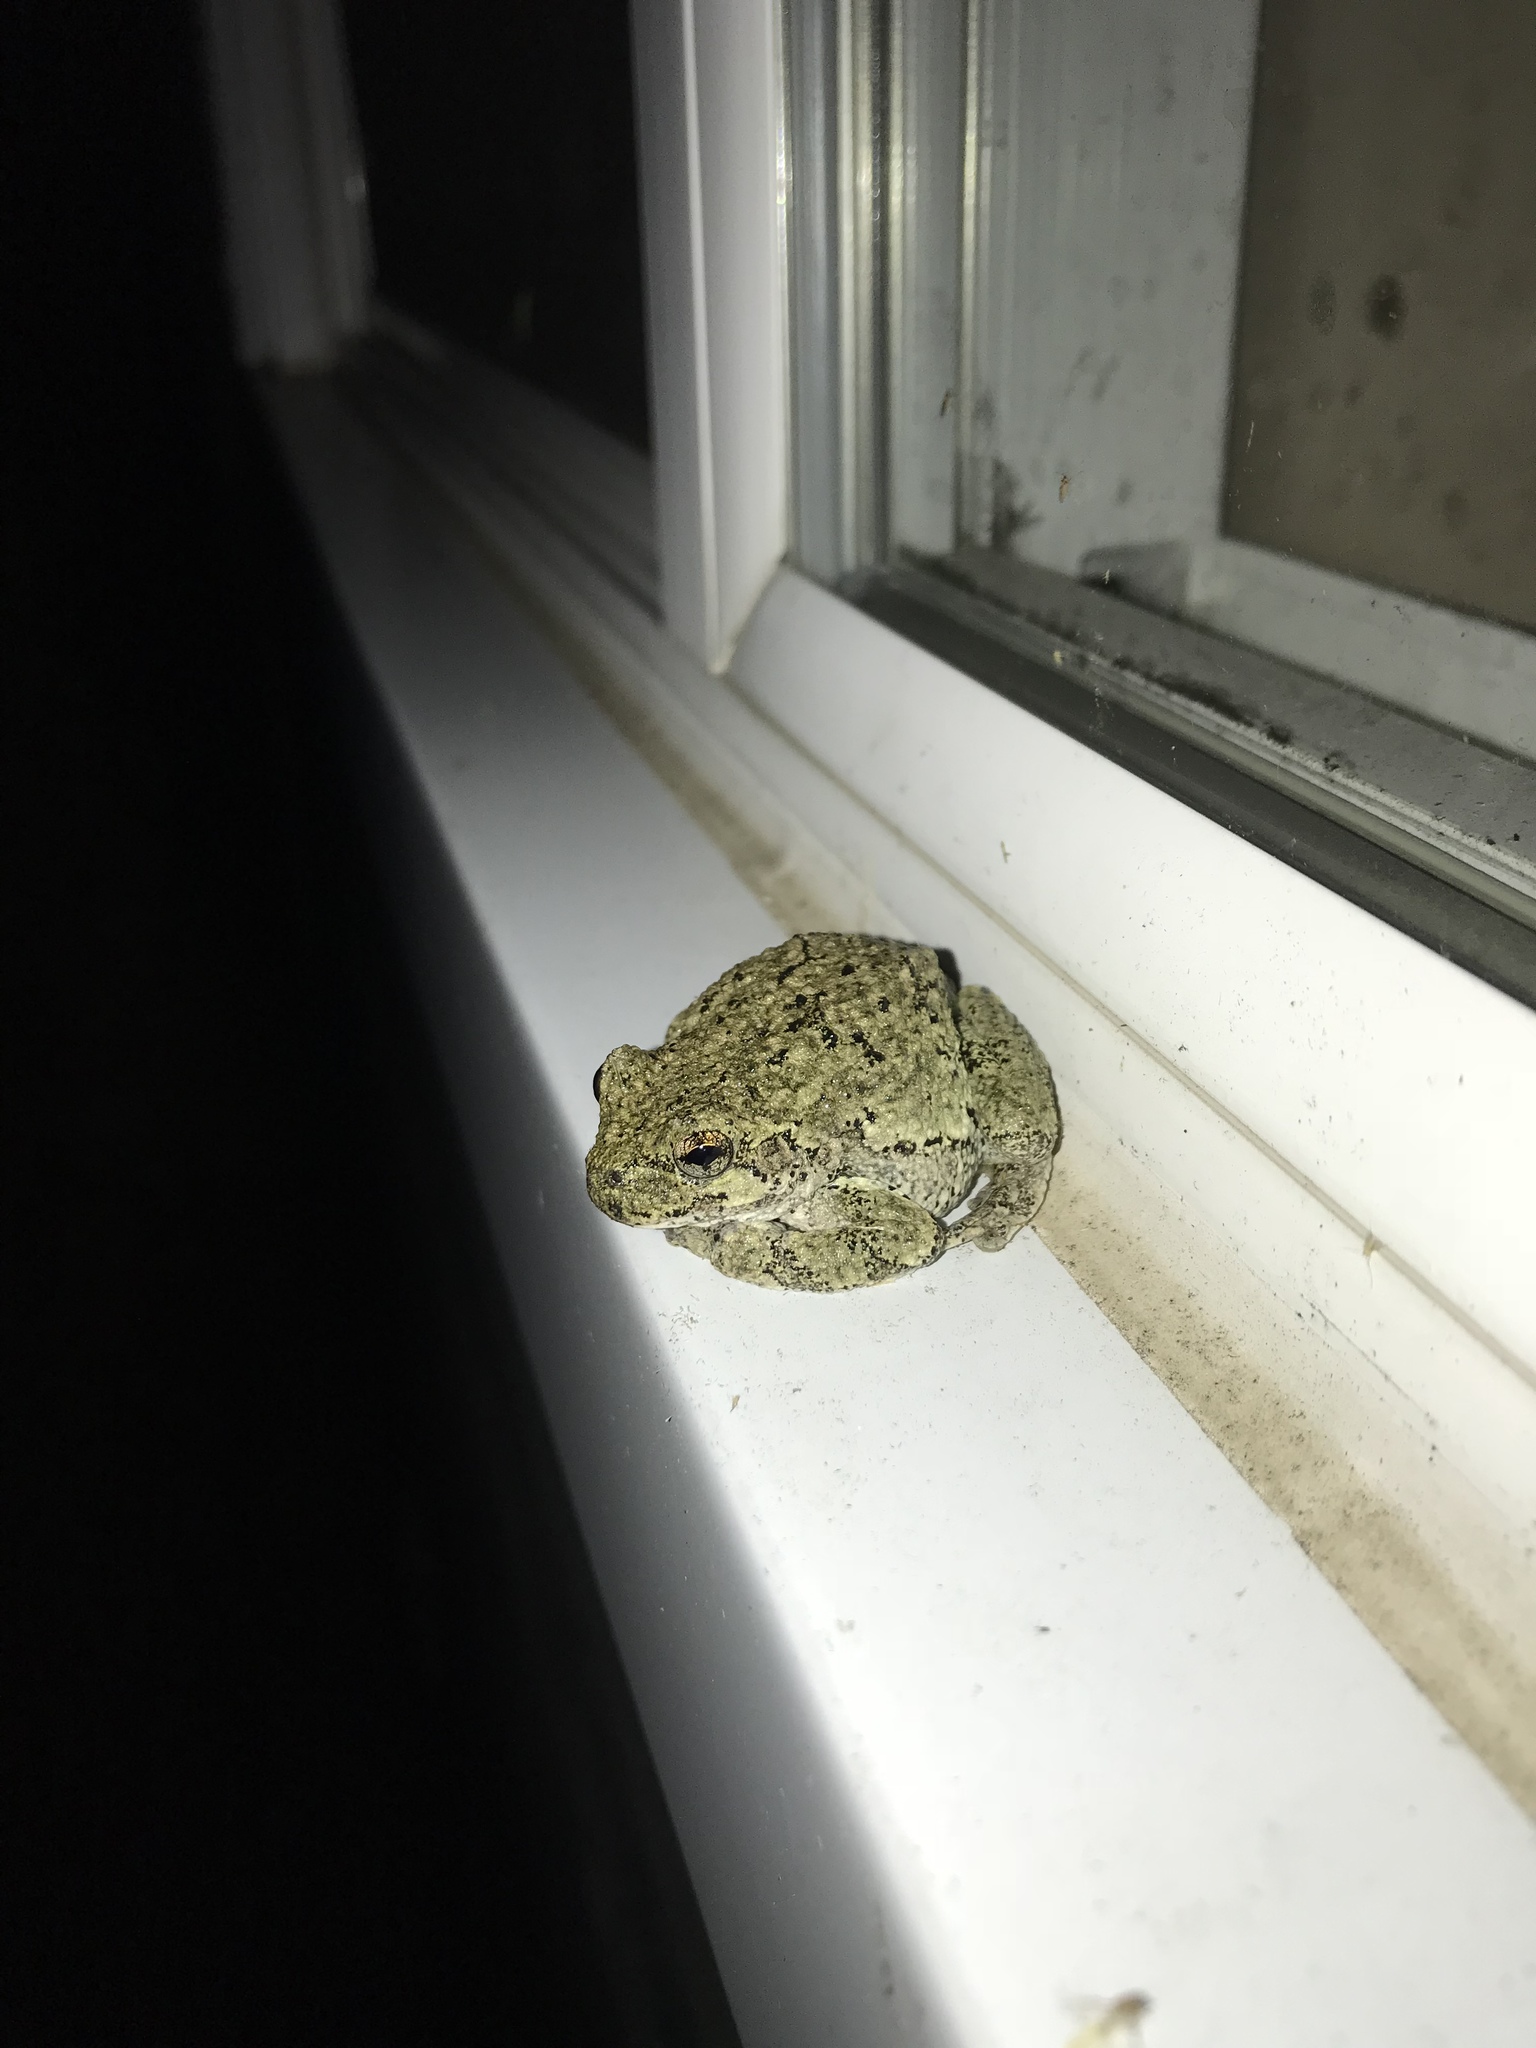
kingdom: Animalia
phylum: Chordata
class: Amphibia
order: Anura
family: Hylidae
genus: Dryophytes
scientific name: Dryophytes versicolor
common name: Gray treefrog
